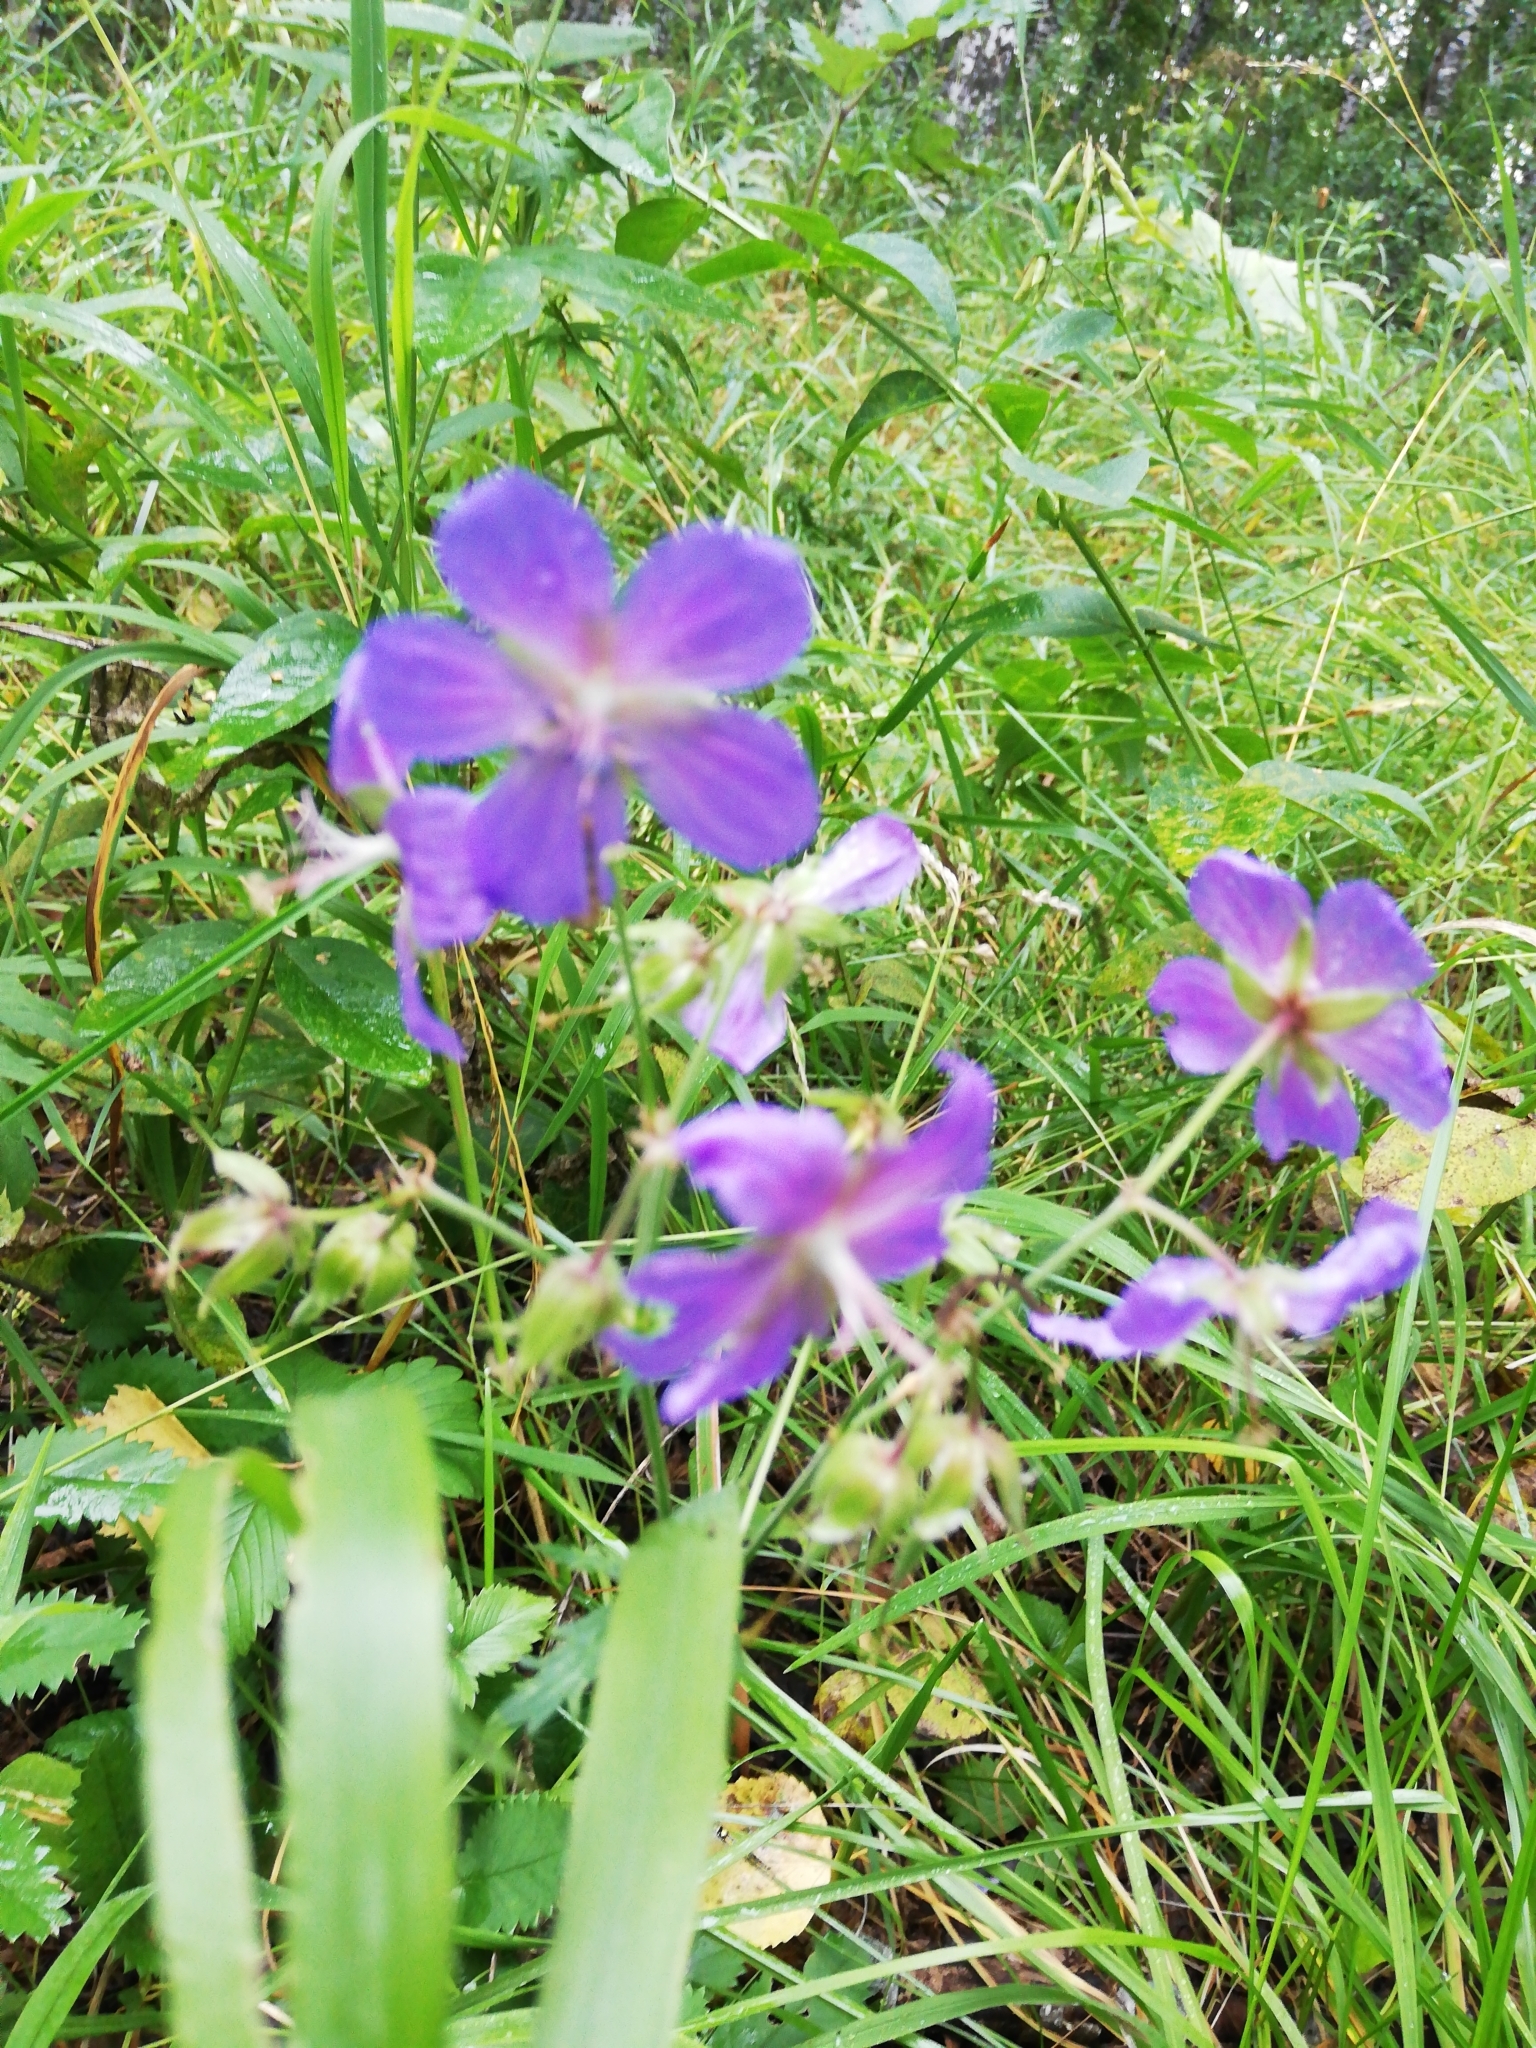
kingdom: Plantae
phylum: Tracheophyta
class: Magnoliopsida
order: Geraniales
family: Geraniaceae
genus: Geranium
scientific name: Geranium pratense
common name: Meadow crane's-bill
